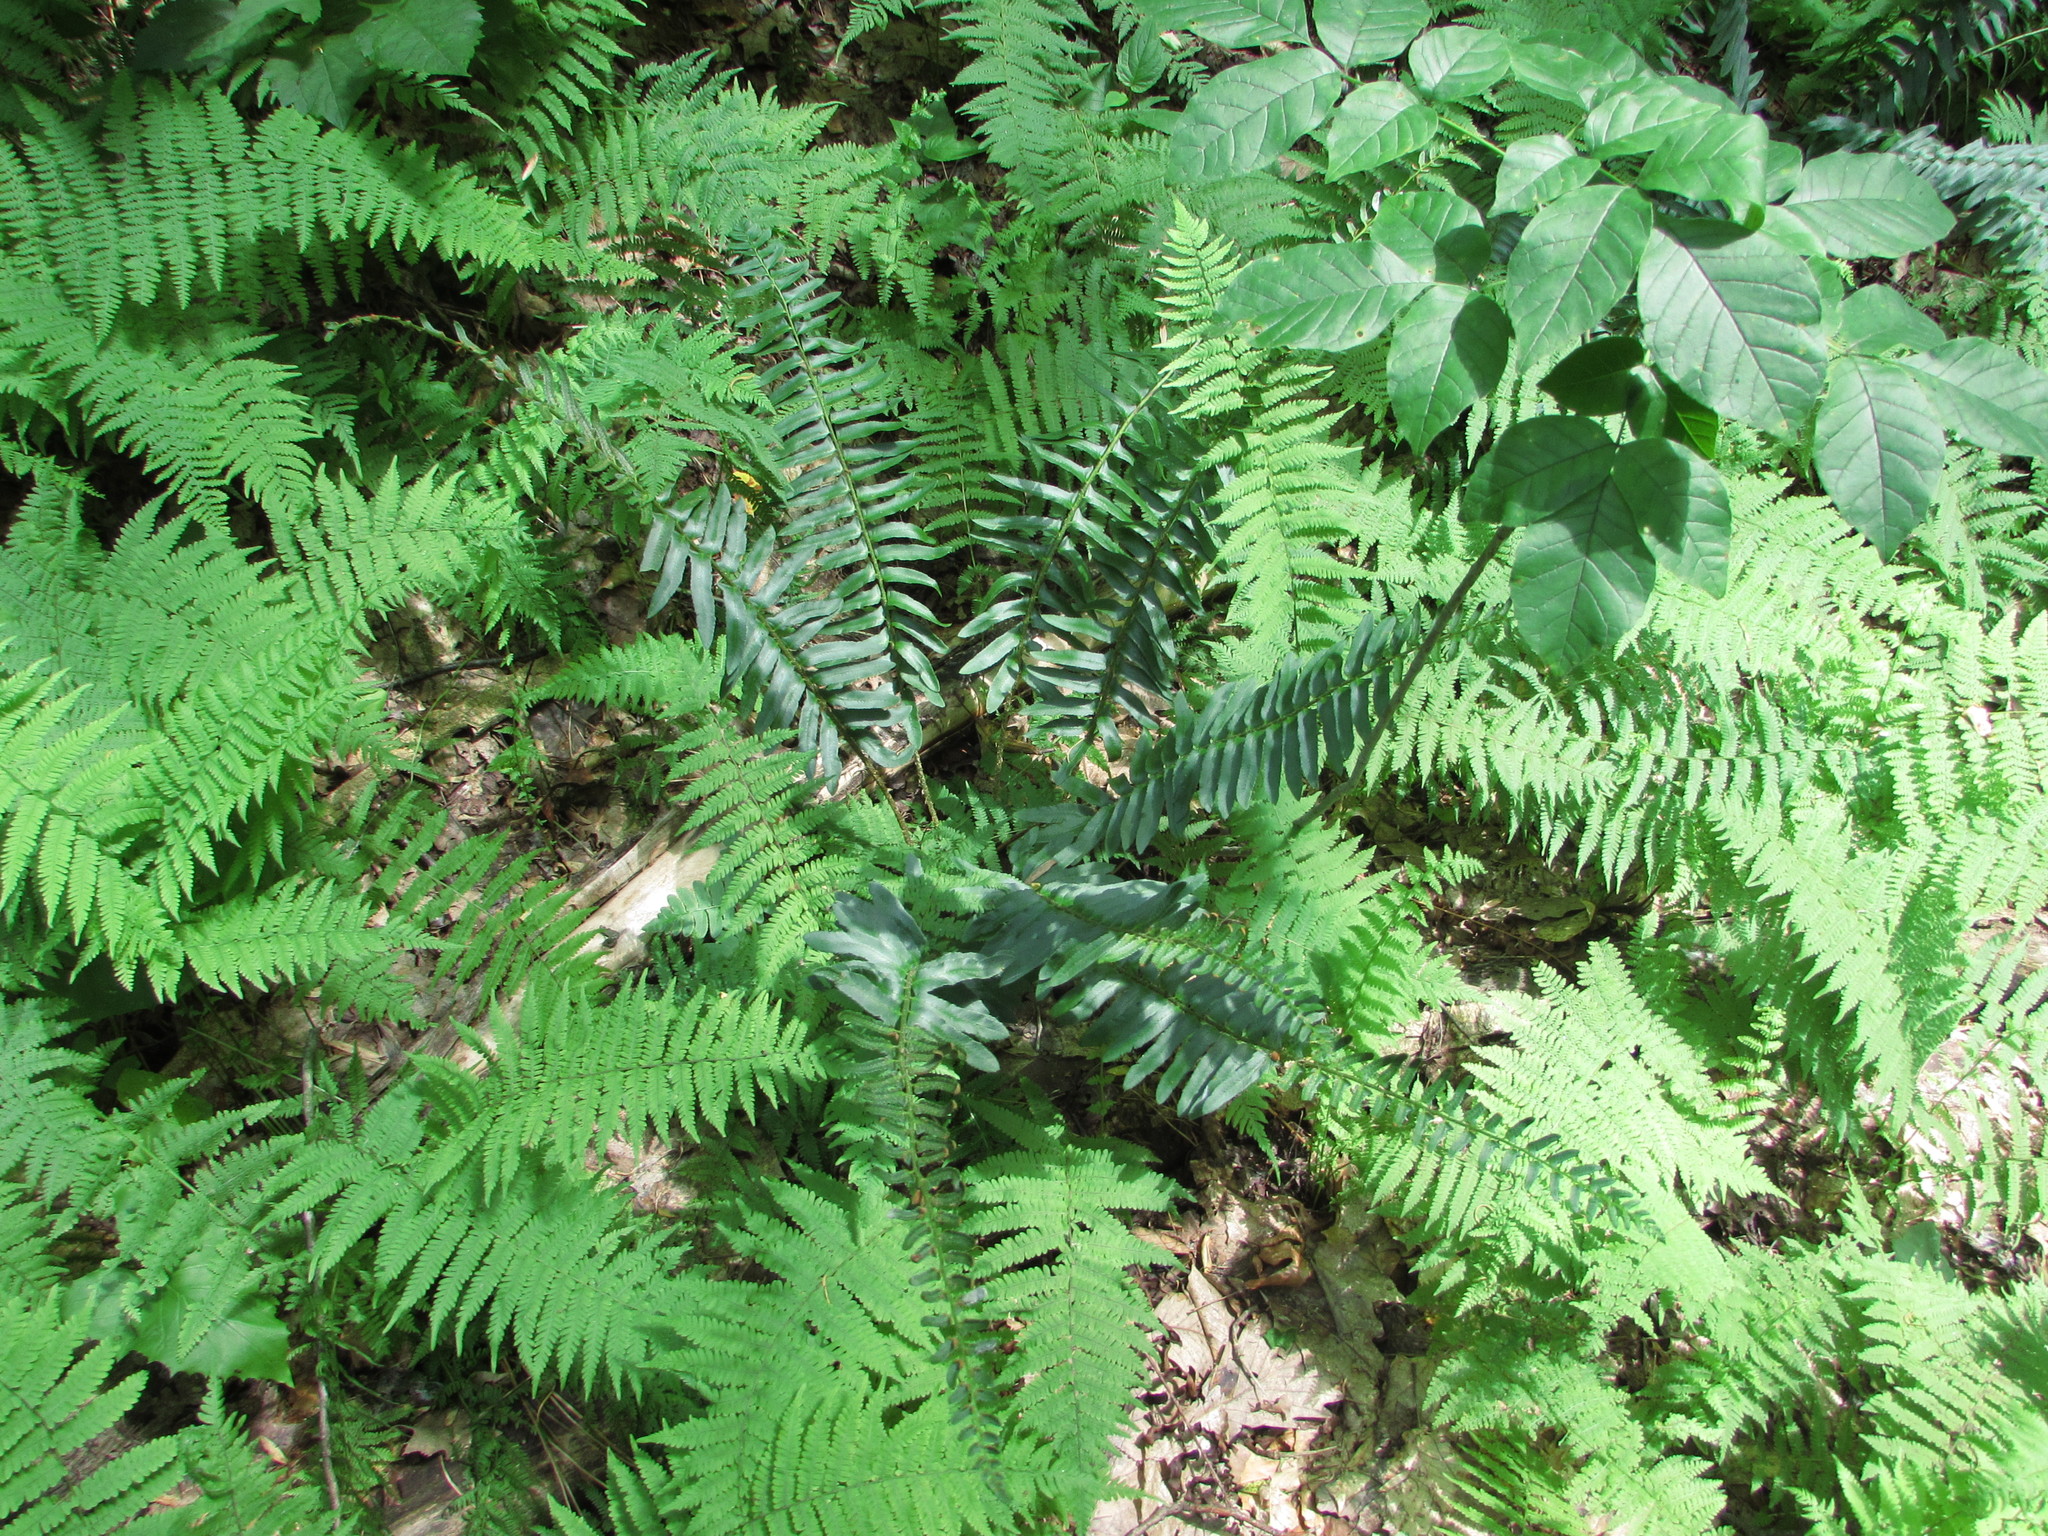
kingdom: Plantae
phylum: Tracheophyta
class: Polypodiopsida
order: Polypodiales
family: Dryopteridaceae
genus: Polystichum
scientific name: Polystichum acrostichoides
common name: Christmas fern
